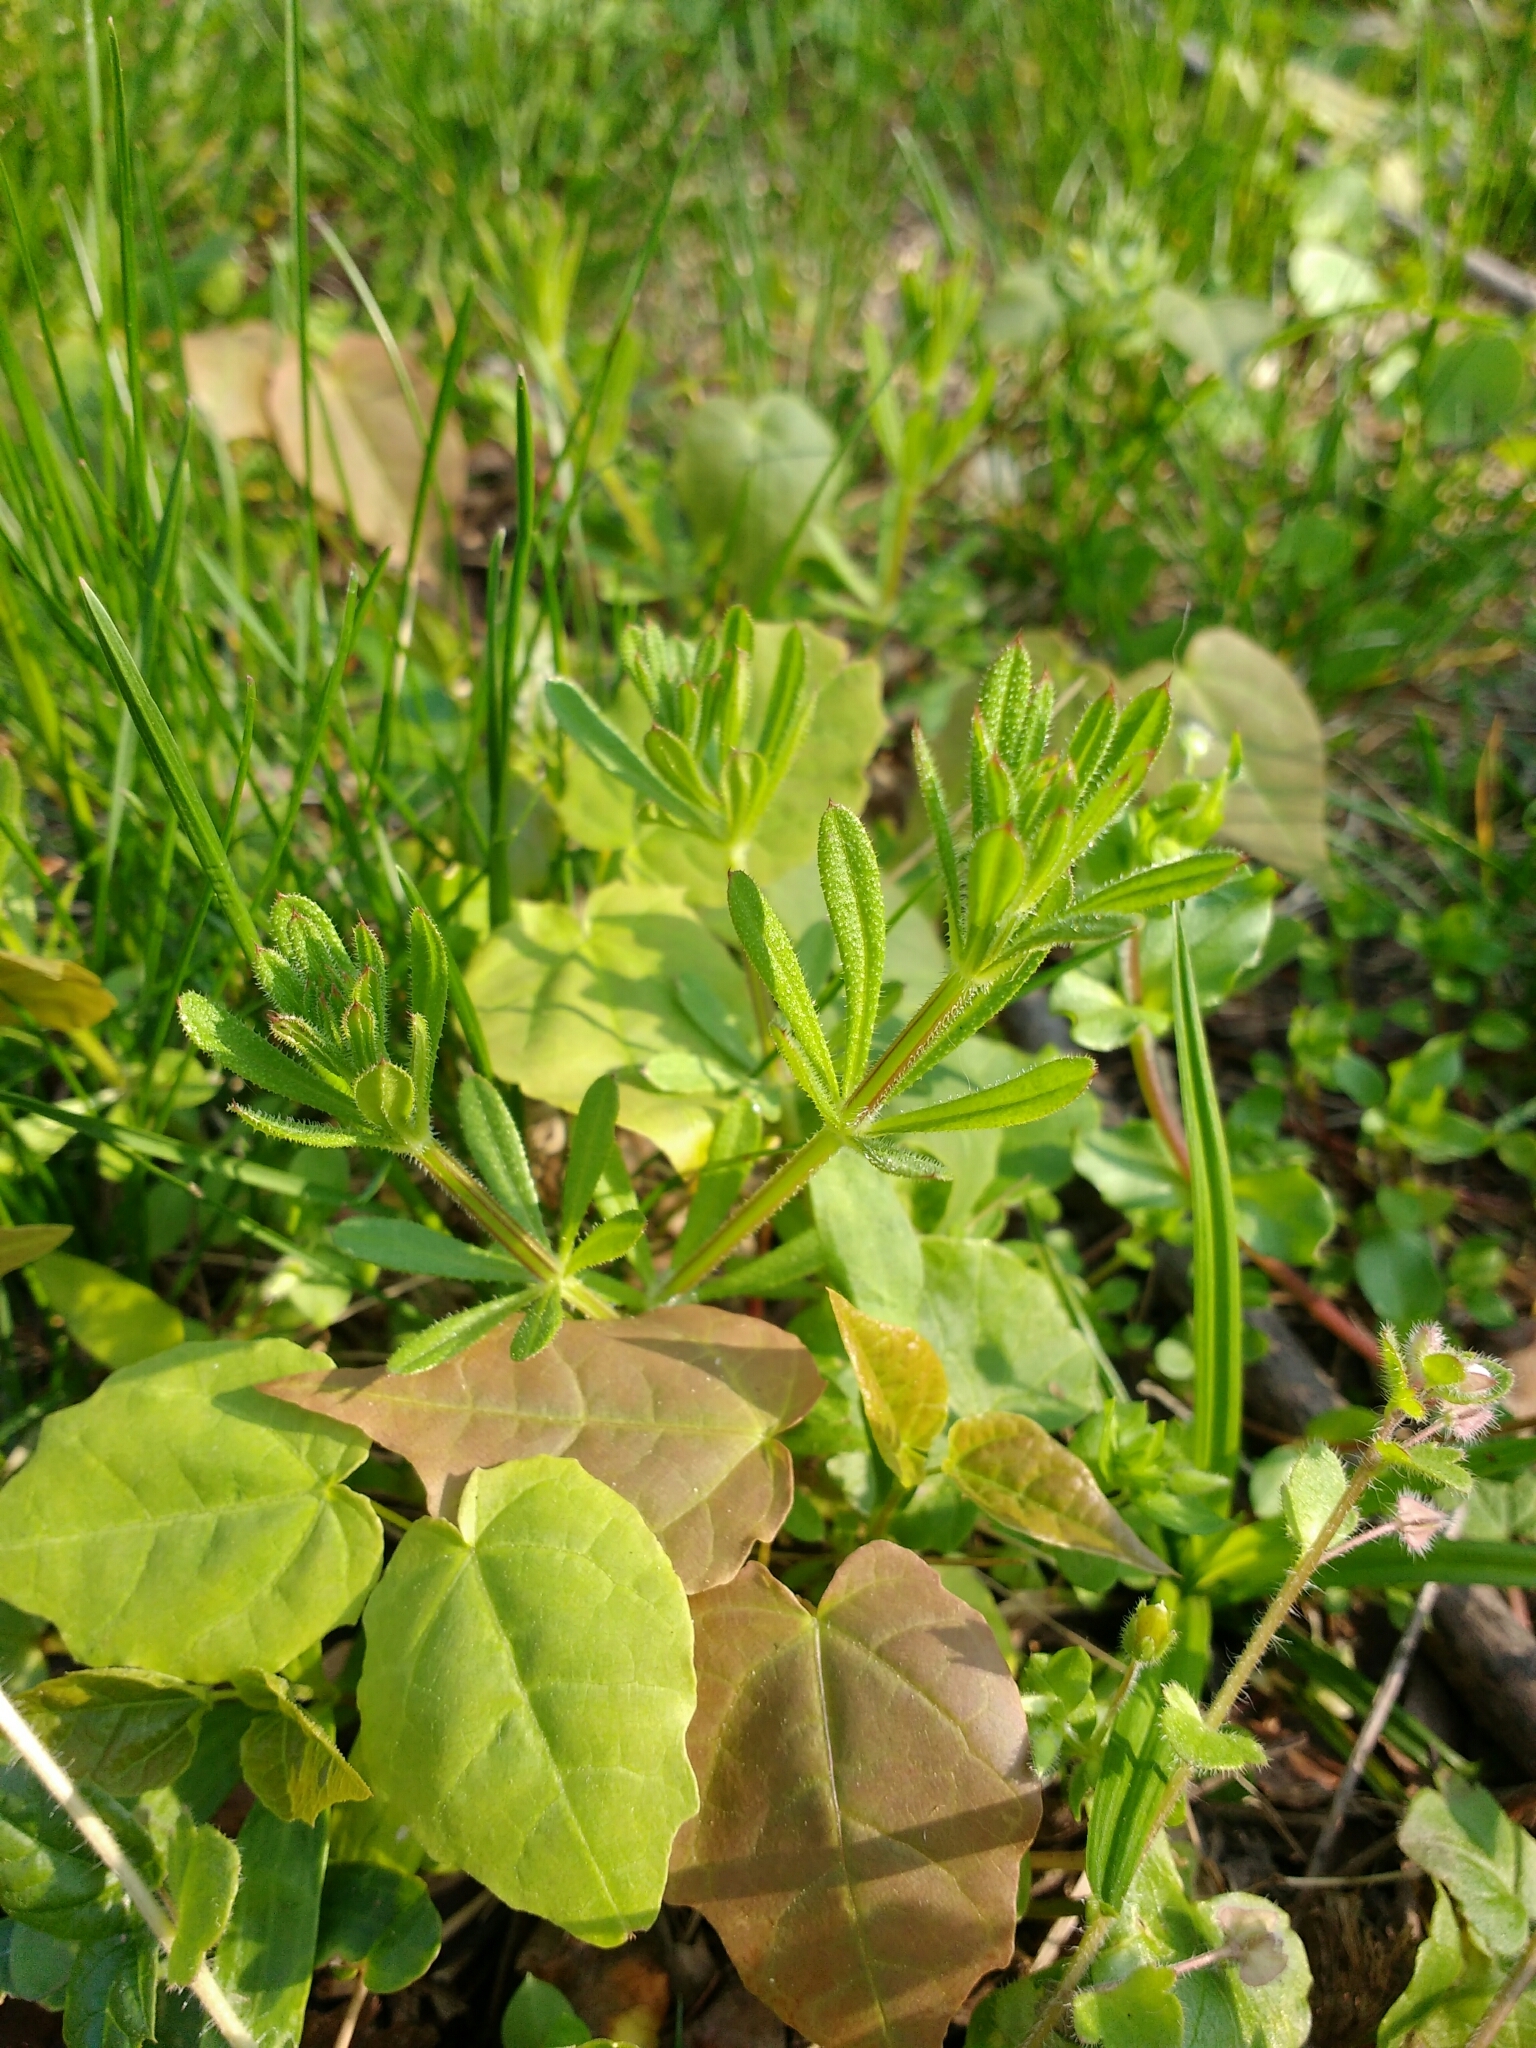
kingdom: Plantae
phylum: Tracheophyta
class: Magnoliopsida
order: Gentianales
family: Rubiaceae
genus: Galium
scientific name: Galium aparine
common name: Cleavers
